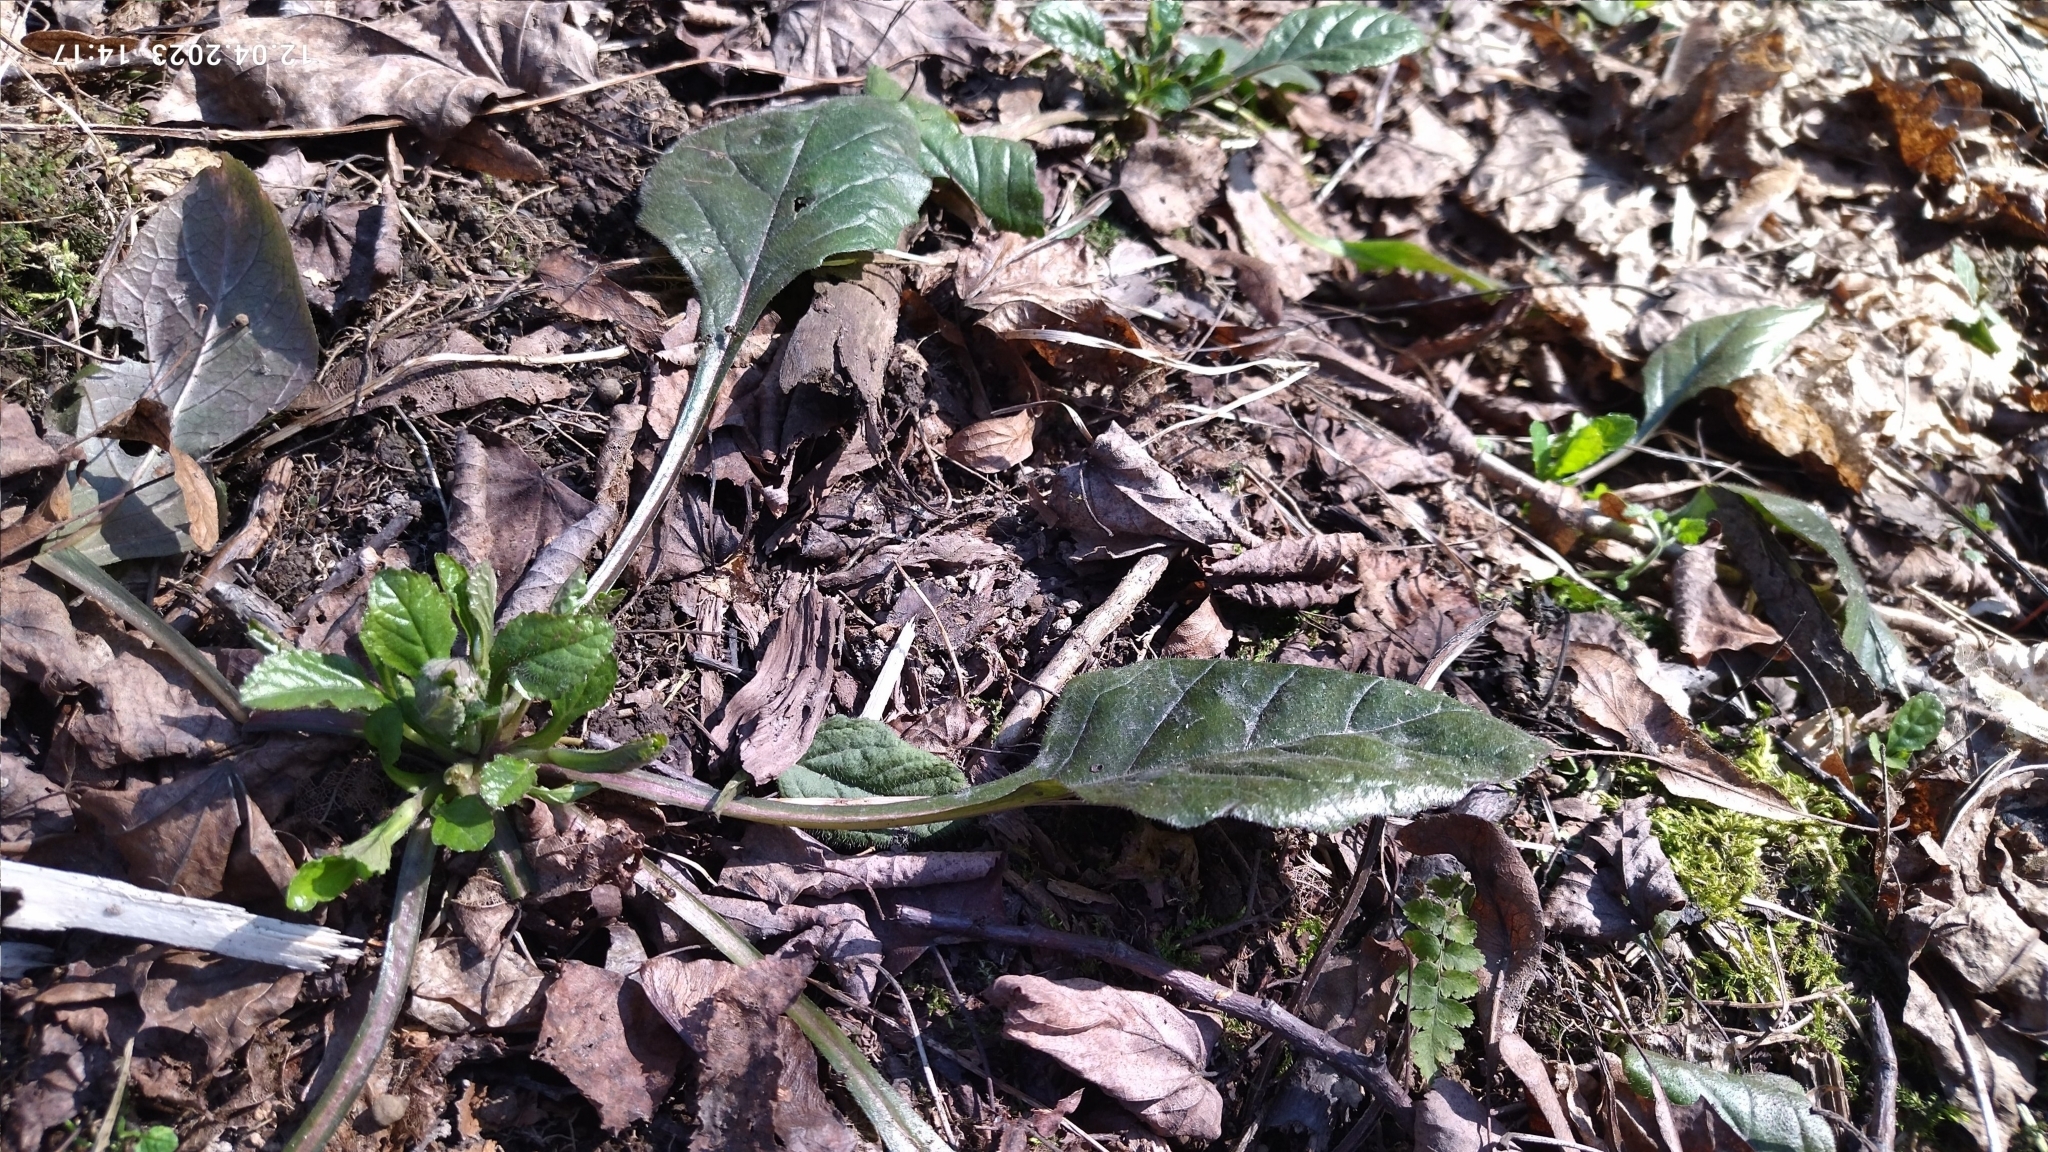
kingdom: Plantae
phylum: Tracheophyta
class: Magnoliopsida
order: Lamiales
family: Lamiaceae
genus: Ajuga
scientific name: Ajuga reptans
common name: Bugle
